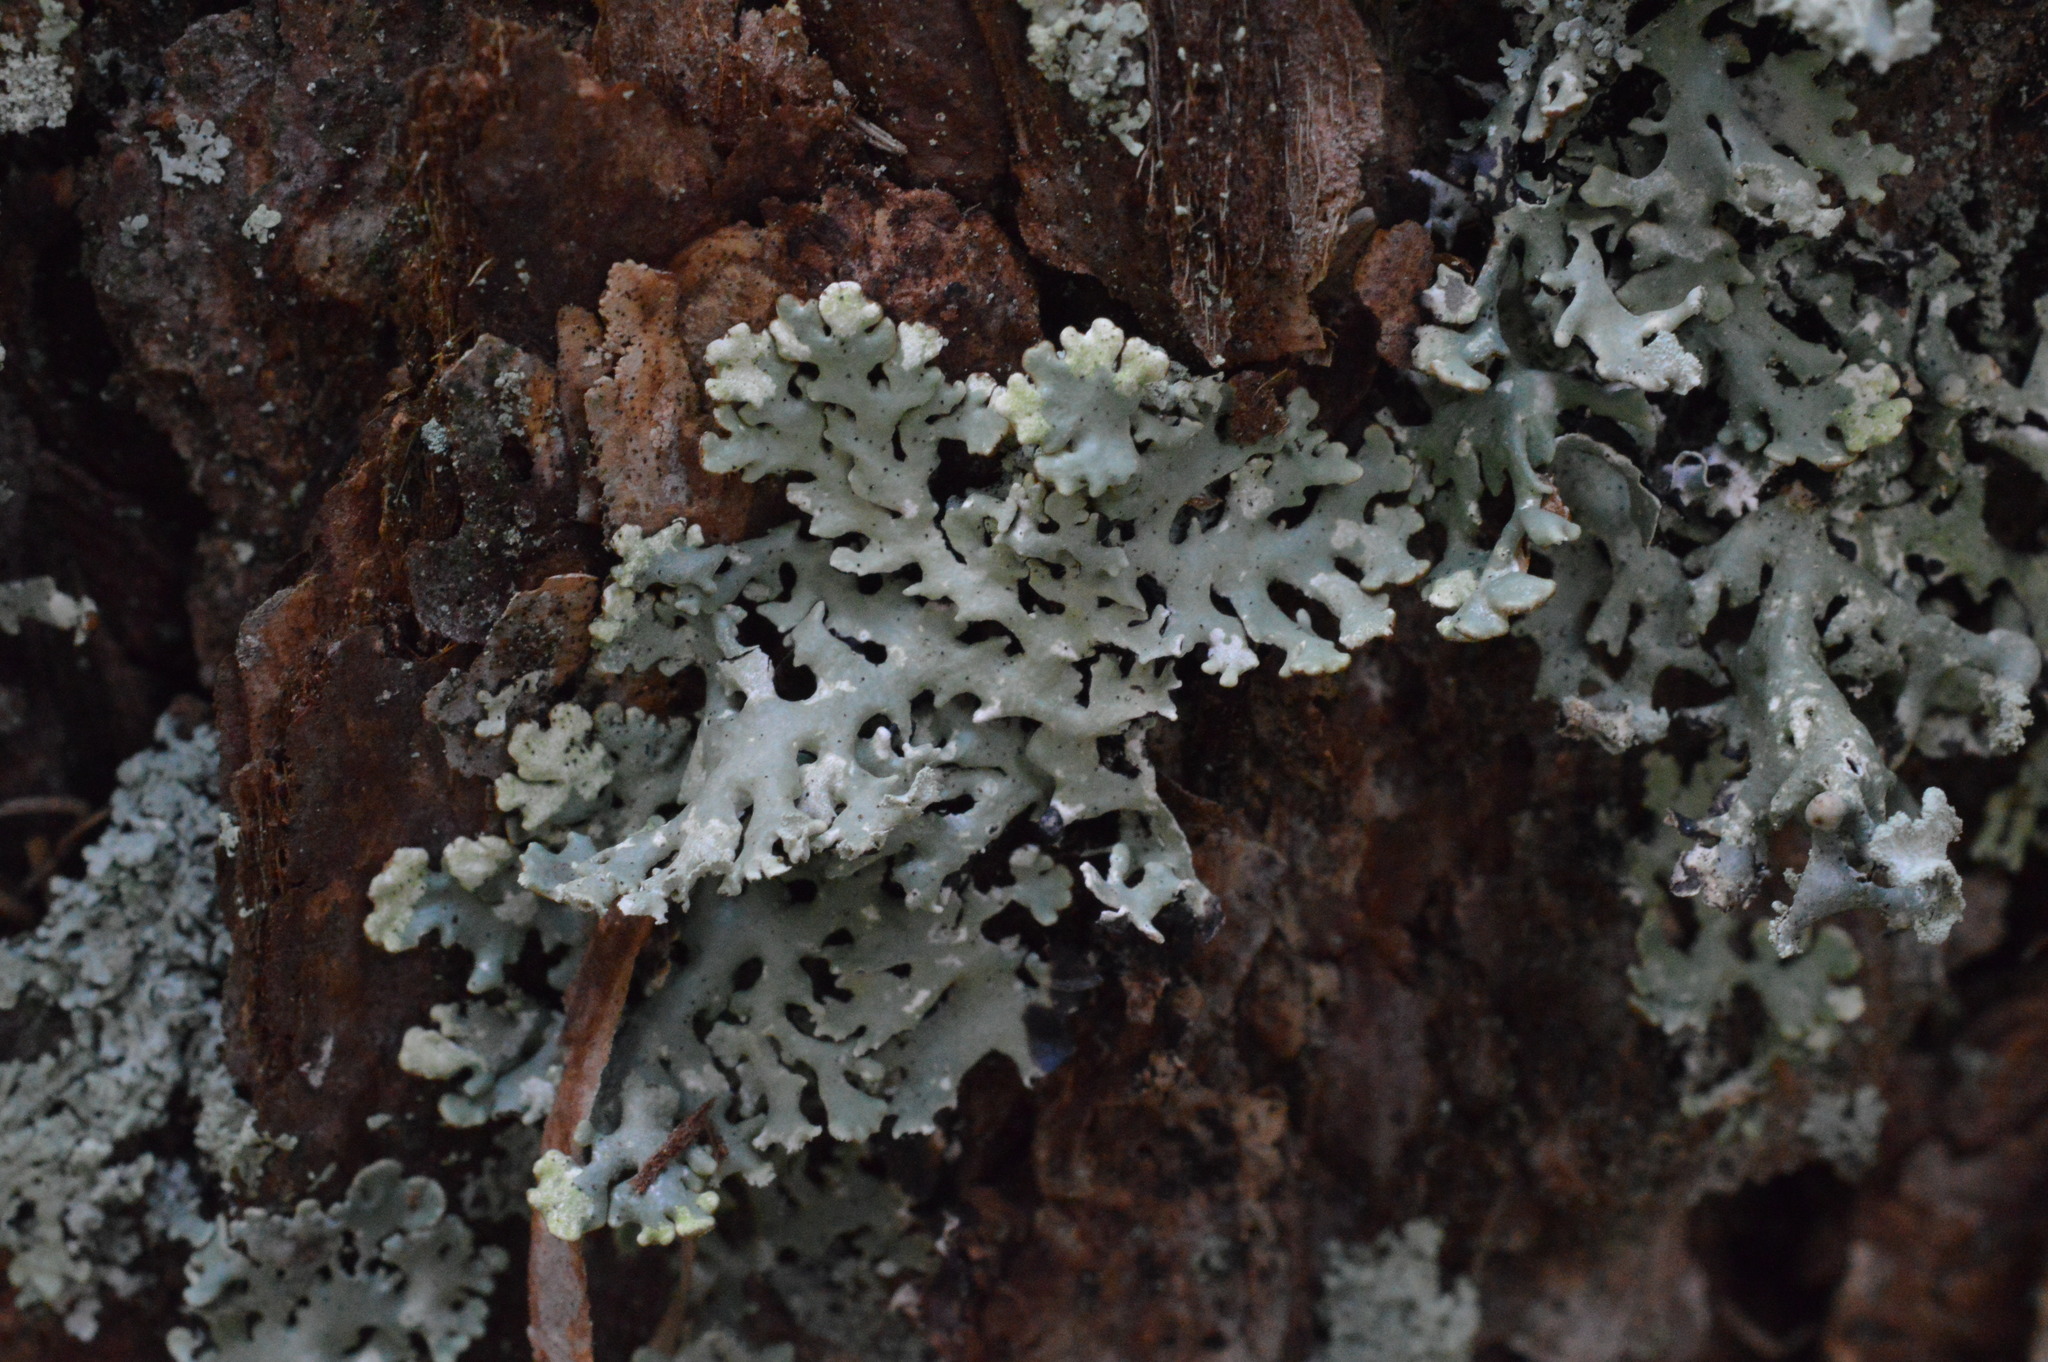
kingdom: Fungi
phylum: Ascomycota
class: Lecanoromycetes
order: Lecanorales
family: Parmeliaceae
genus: Hypogymnia
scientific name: Hypogymnia physodes
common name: Dark crottle
